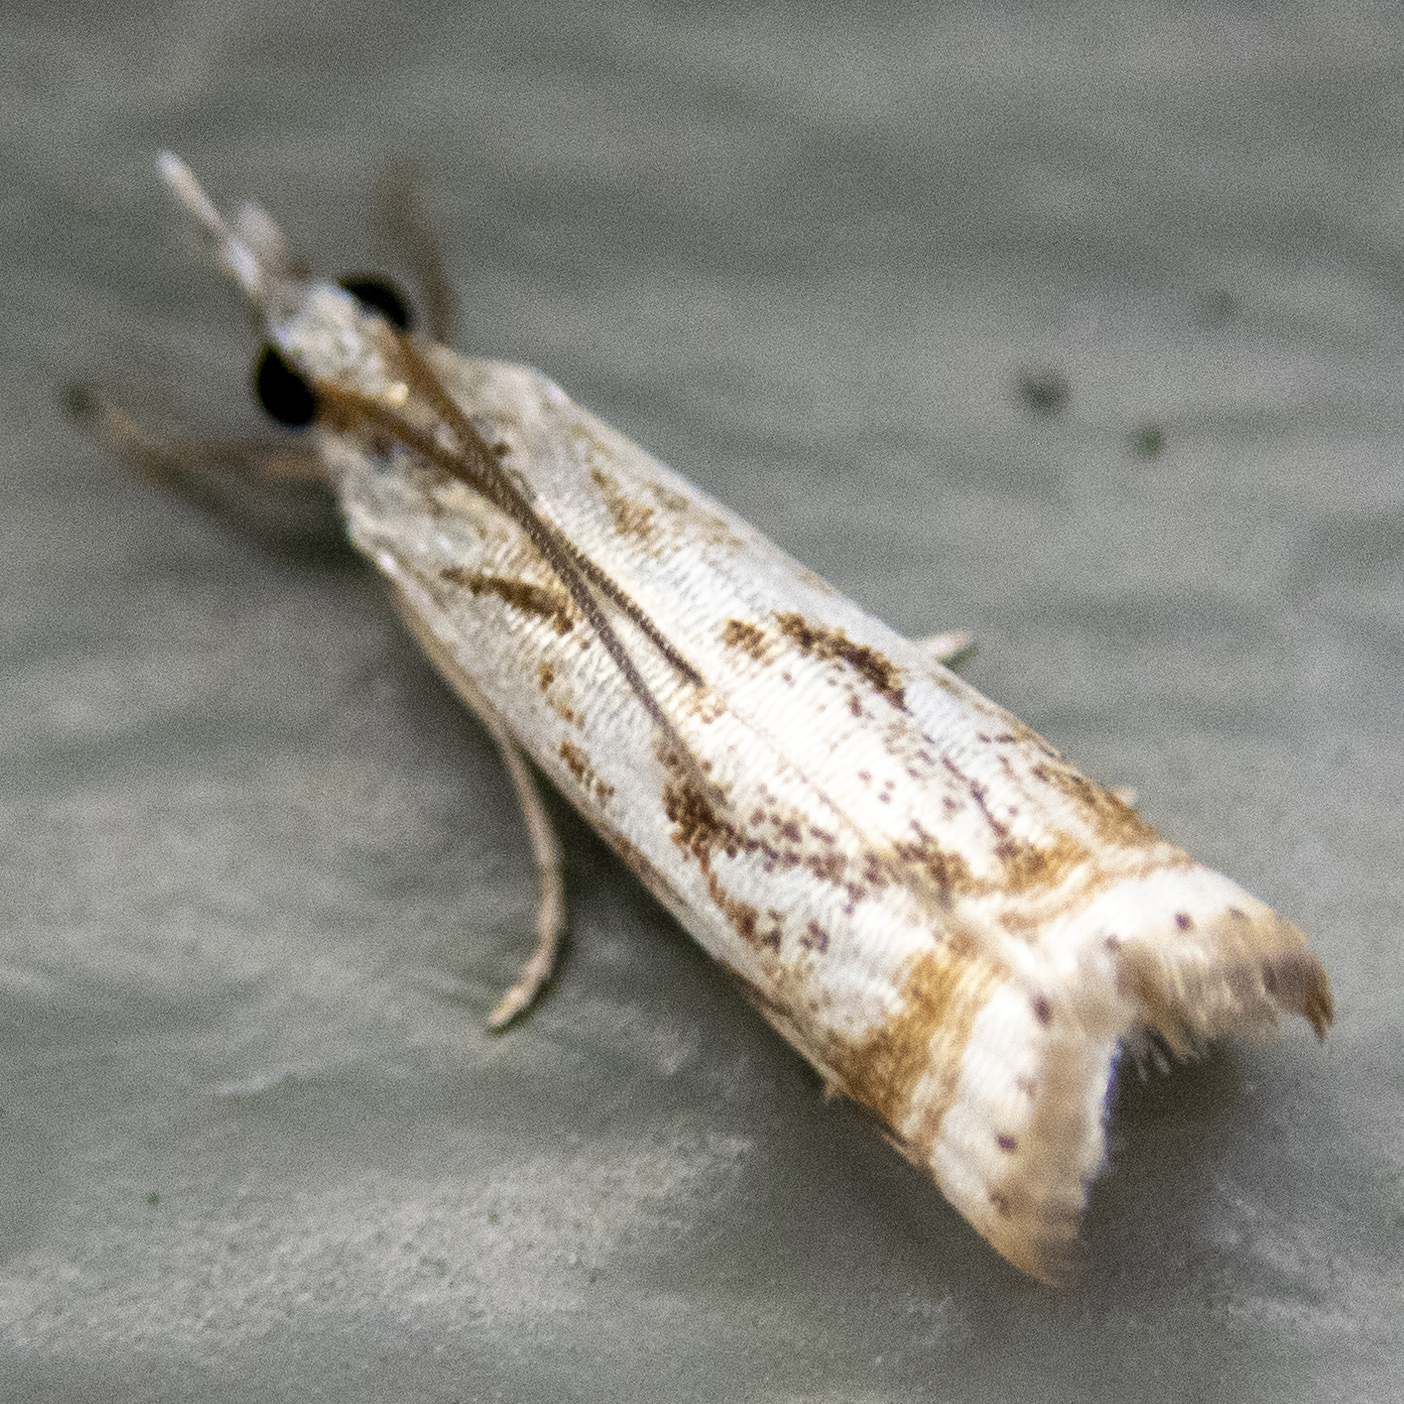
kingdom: Animalia
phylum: Arthropoda
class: Insecta
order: Lepidoptera
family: Crambidae
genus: Microcrambus
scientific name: Microcrambus elegans
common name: Elegant grass-veneer
